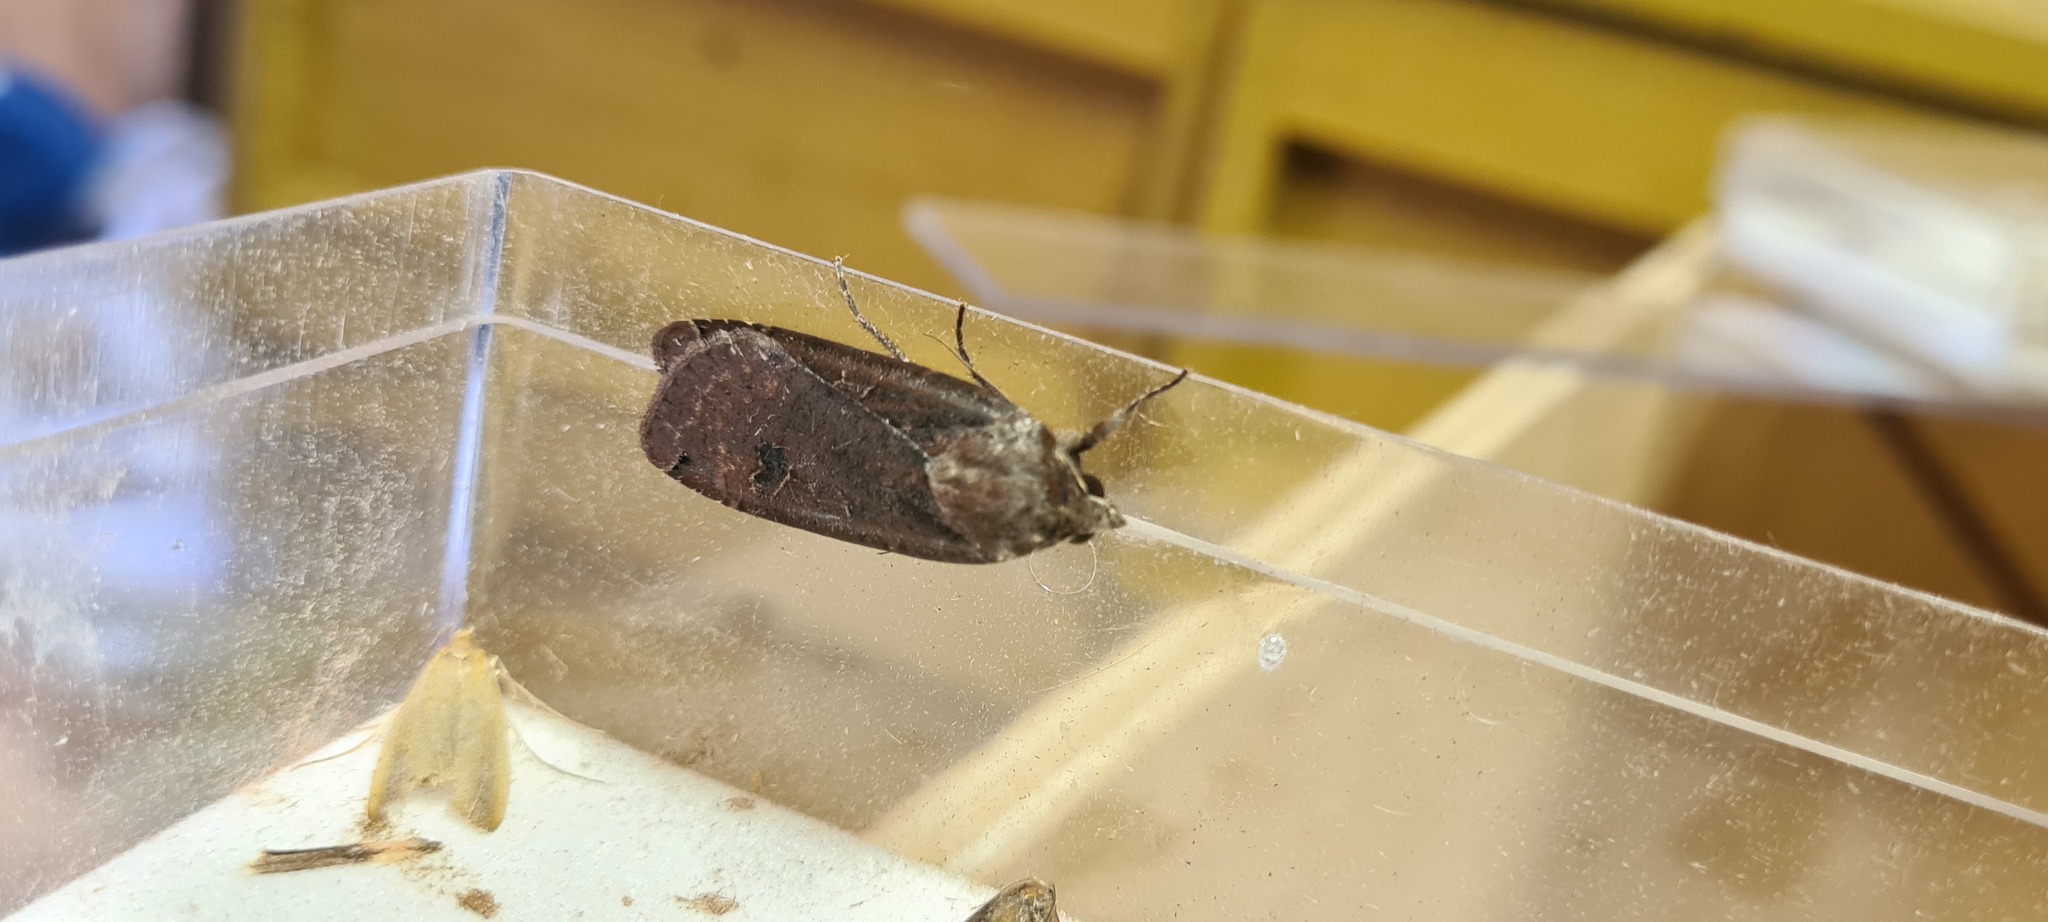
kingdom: Animalia
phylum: Arthropoda
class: Insecta
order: Lepidoptera
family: Noctuidae
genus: Noctua
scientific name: Noctua pronuba
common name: Large yellow underwing
